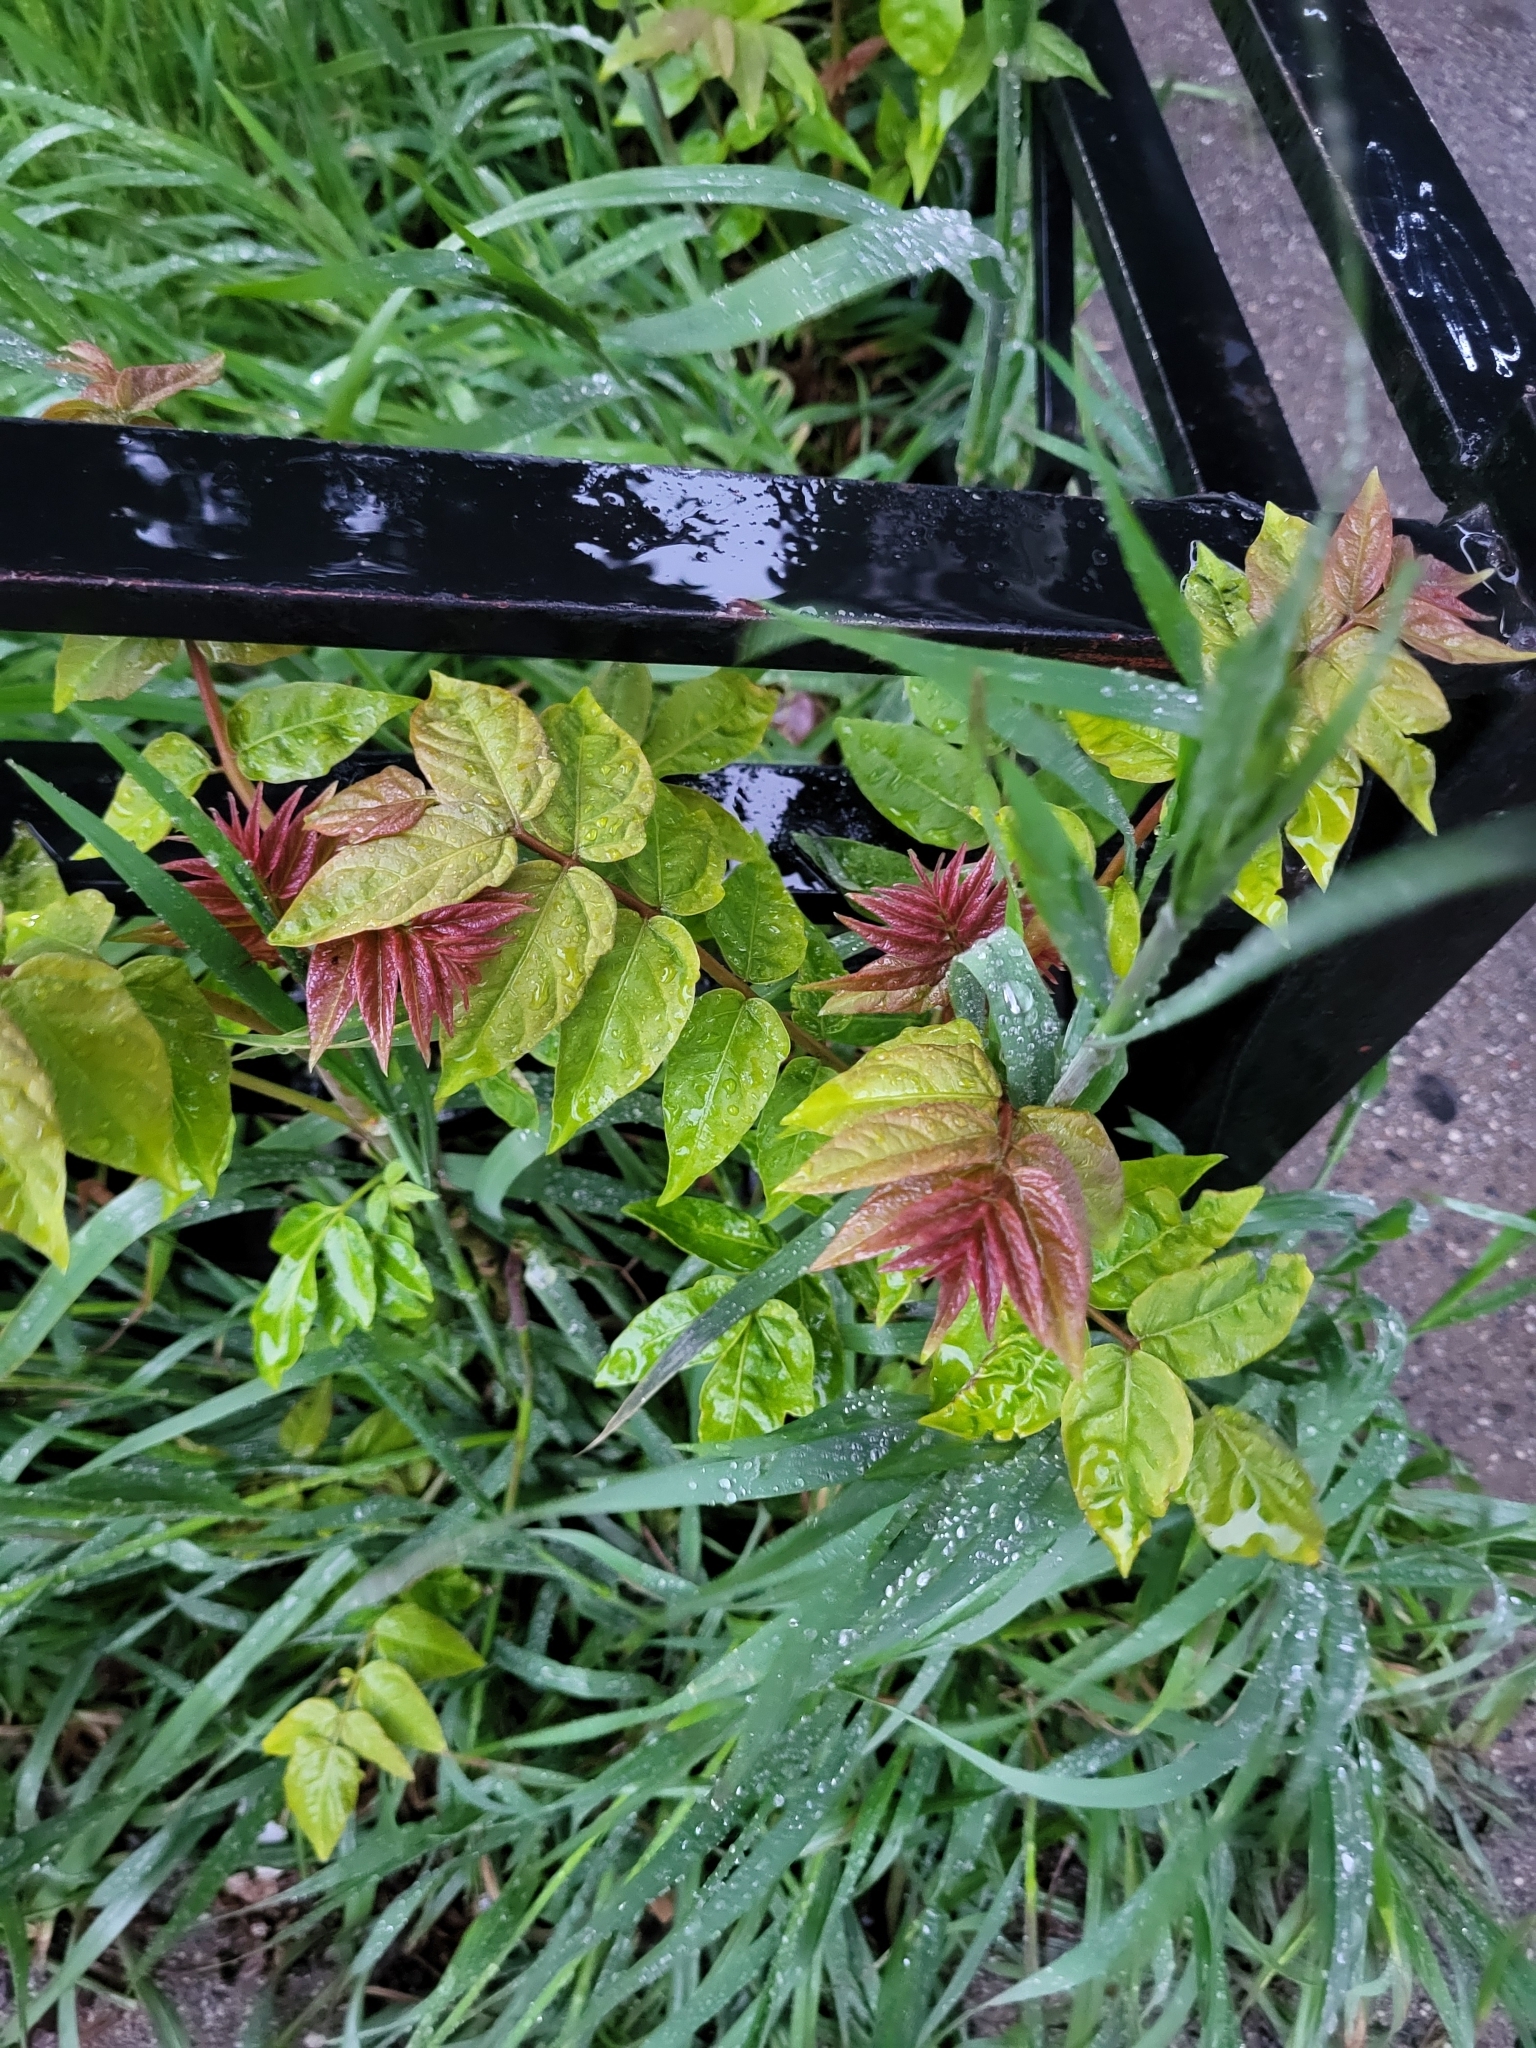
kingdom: Plantae
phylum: Tracheophyta
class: Magnoliopsida
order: Sapindales
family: Simaroubaceae
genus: Ailanthus
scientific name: Ailanthus altissima
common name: Tree-of-heaven
